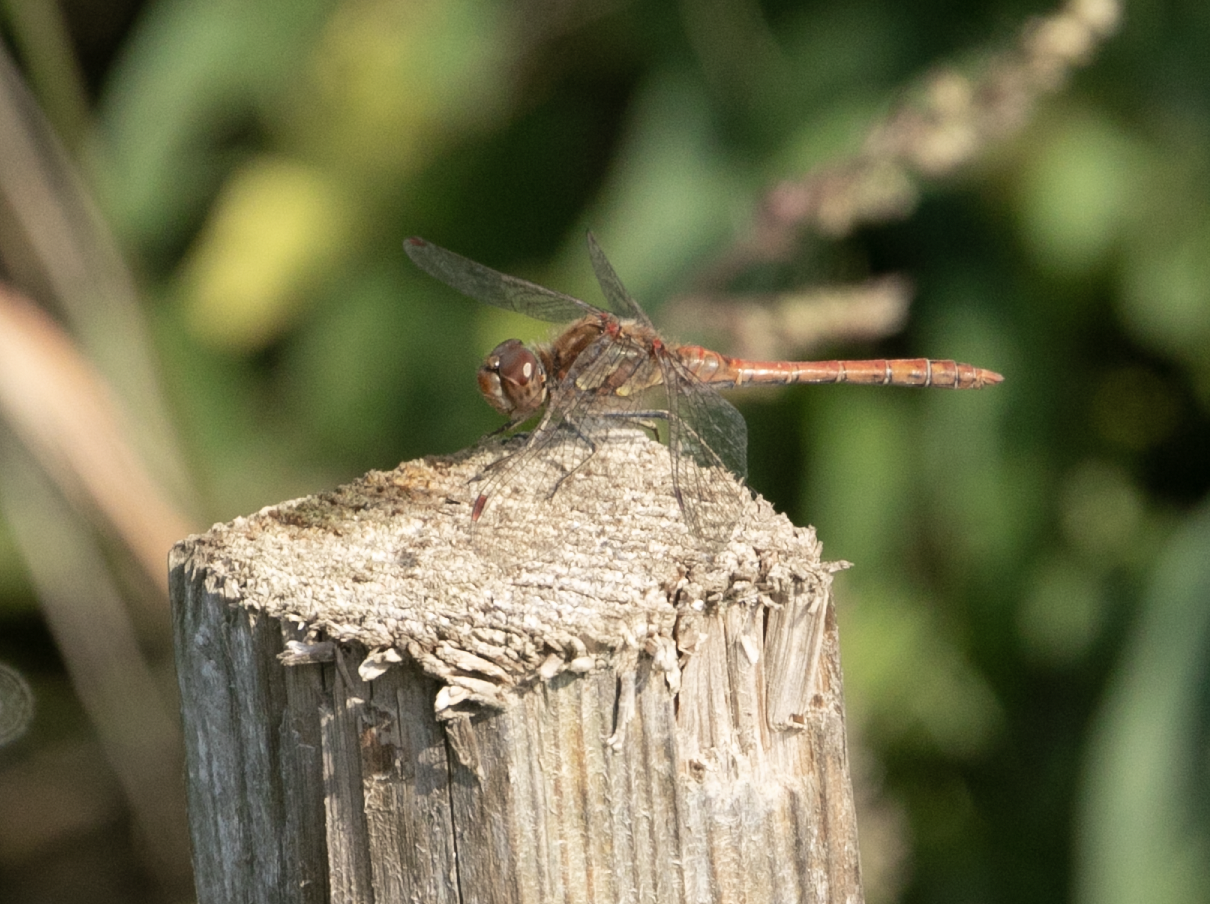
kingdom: Animalia
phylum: Arthropoda
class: Insecta
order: Odonata
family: Libellulidae
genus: Sympetrum
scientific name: Sympetrum striolatum
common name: Common darter
